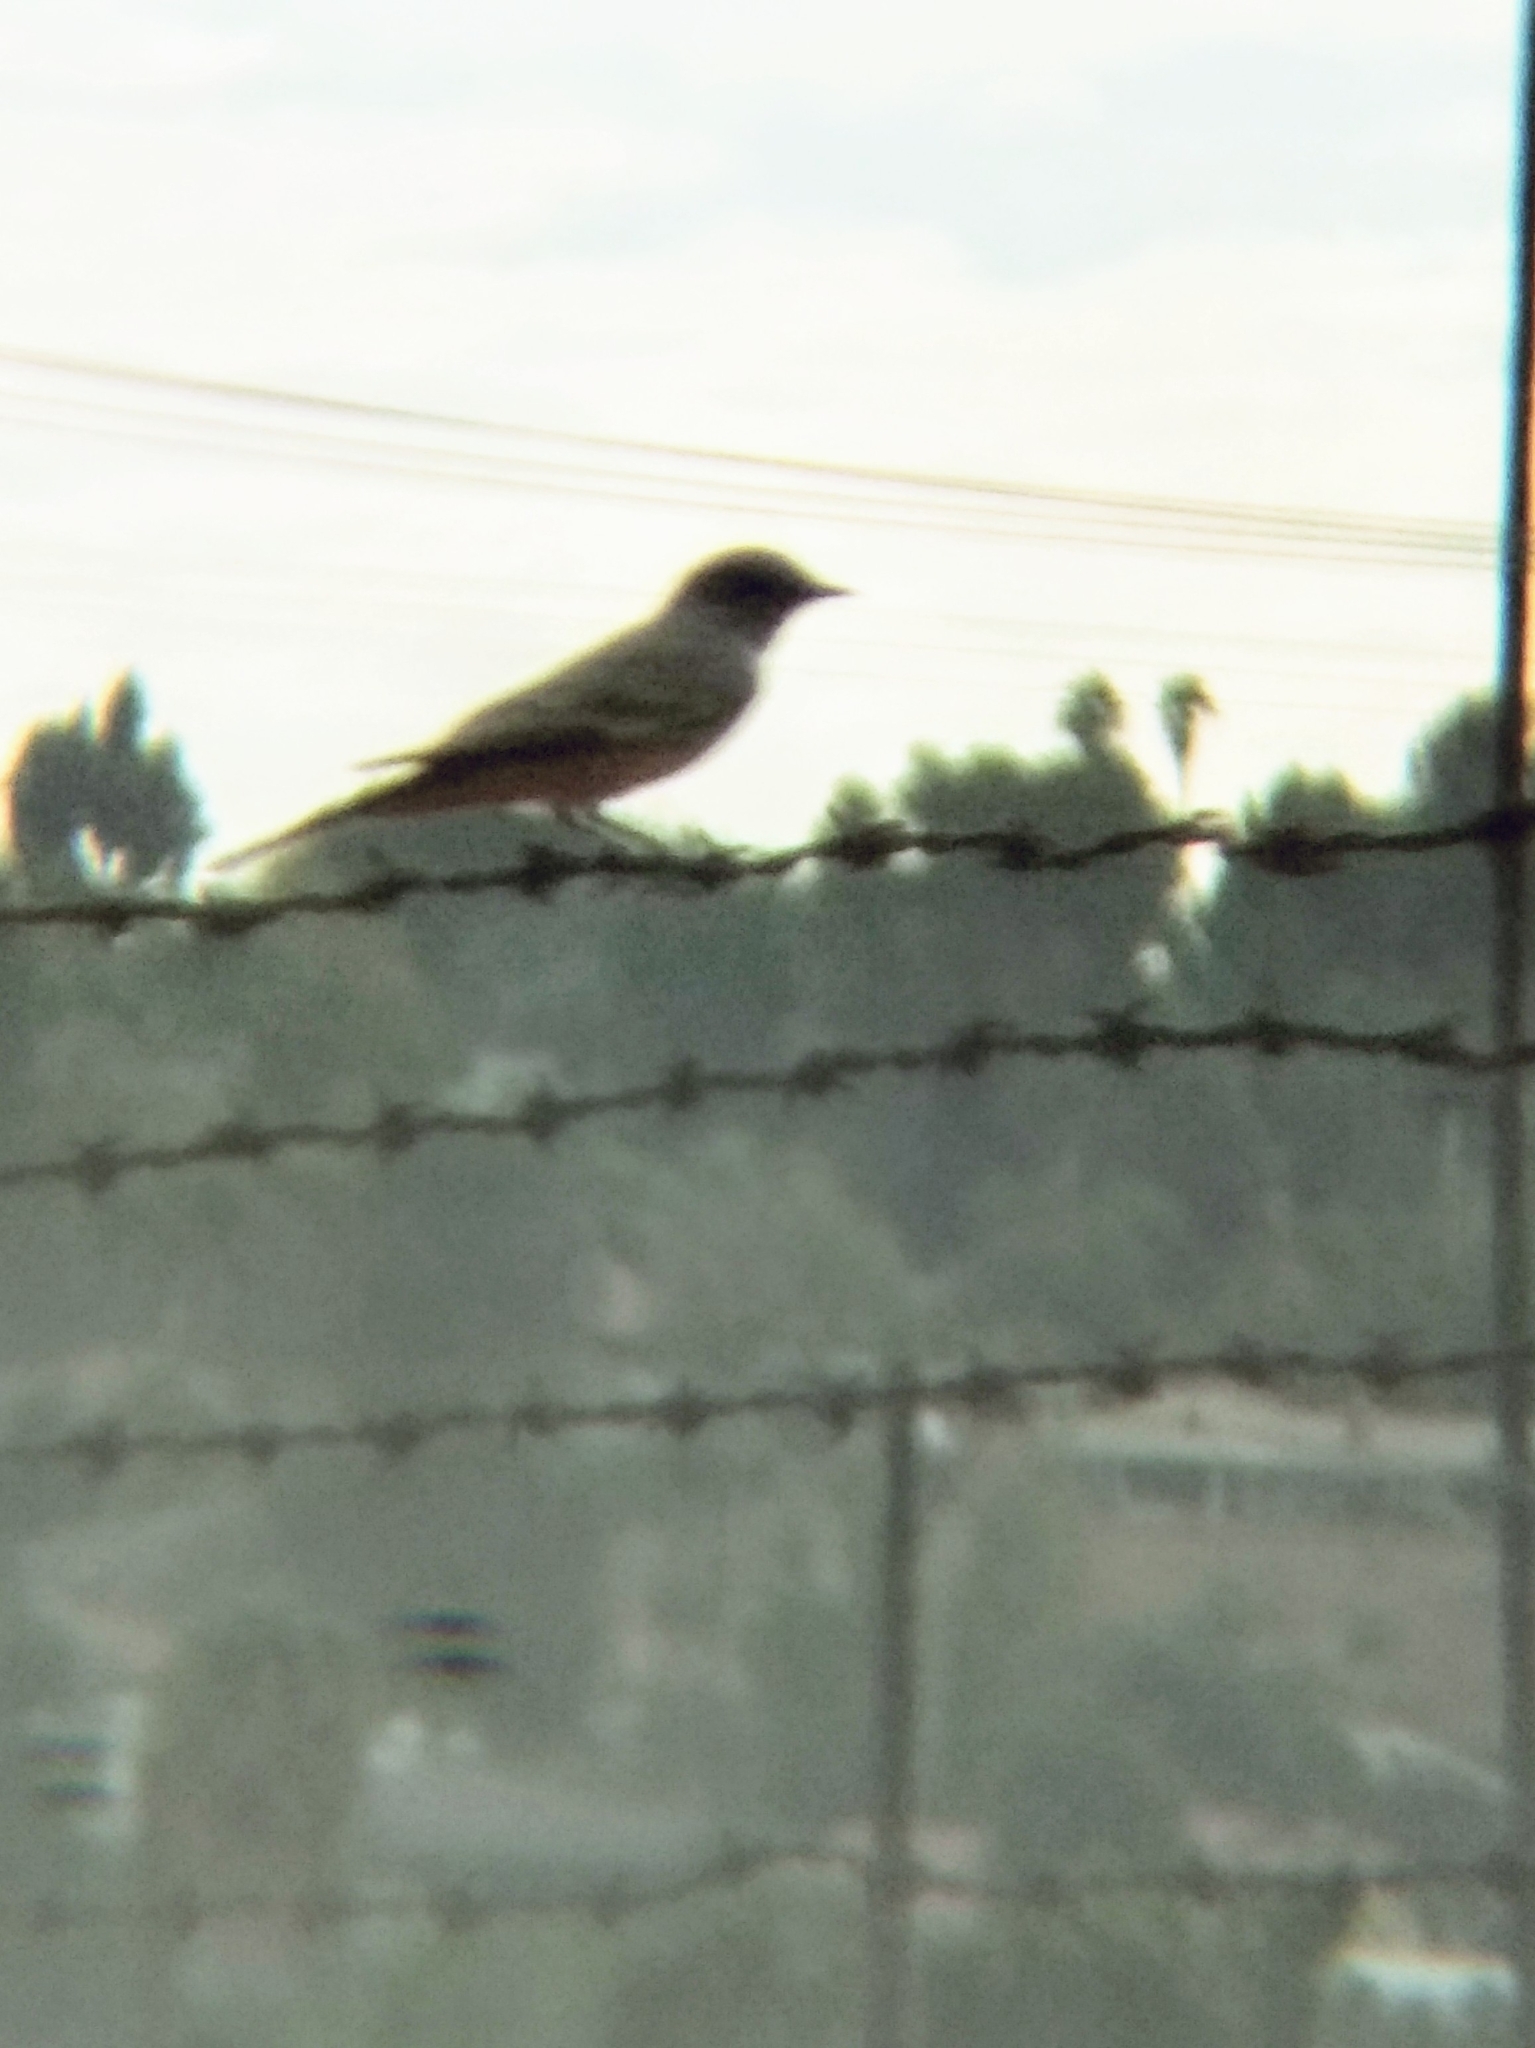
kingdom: Animalia
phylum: Chordata
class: Aves
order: Passeriformes
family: Tyrannidae
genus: Sayornis
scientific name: Sayornis saya
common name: Say's phoebe
